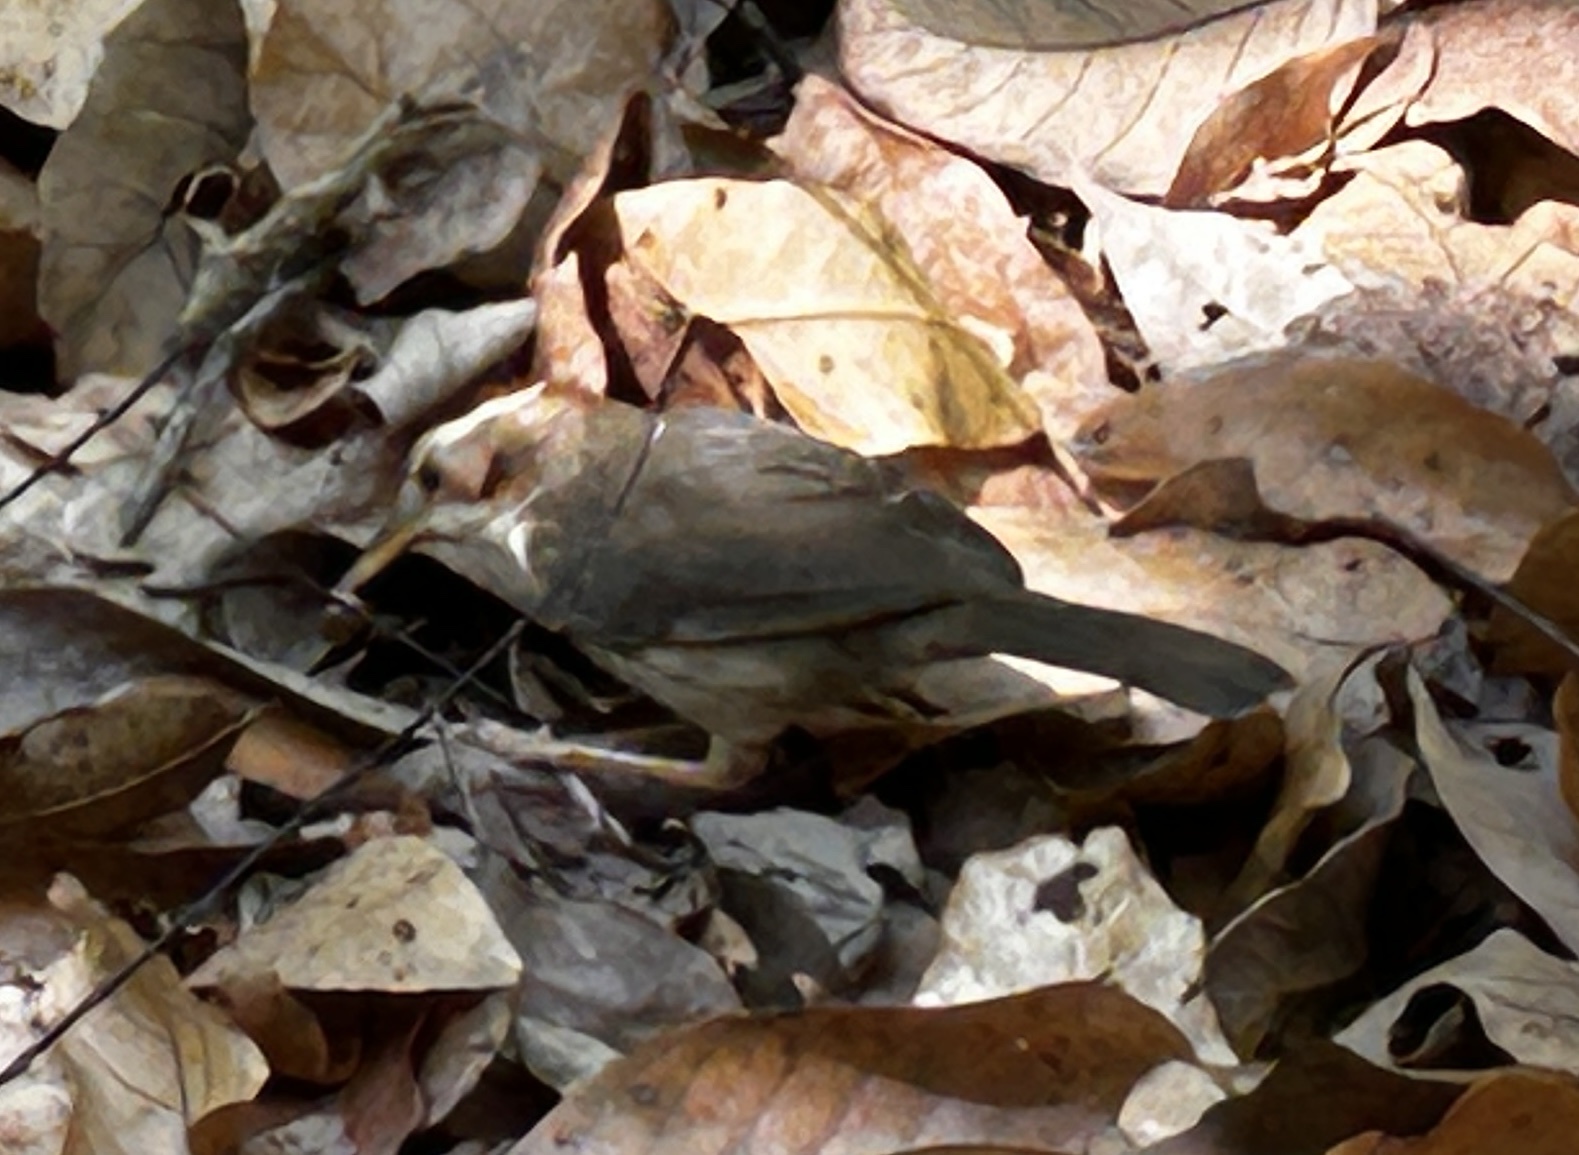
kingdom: Animalia
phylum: Chordata
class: Aves
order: Passeriformes
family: Pellorneidae
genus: Pellorneum
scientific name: Pellorneum ruficeps
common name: Puff-throated babbler
